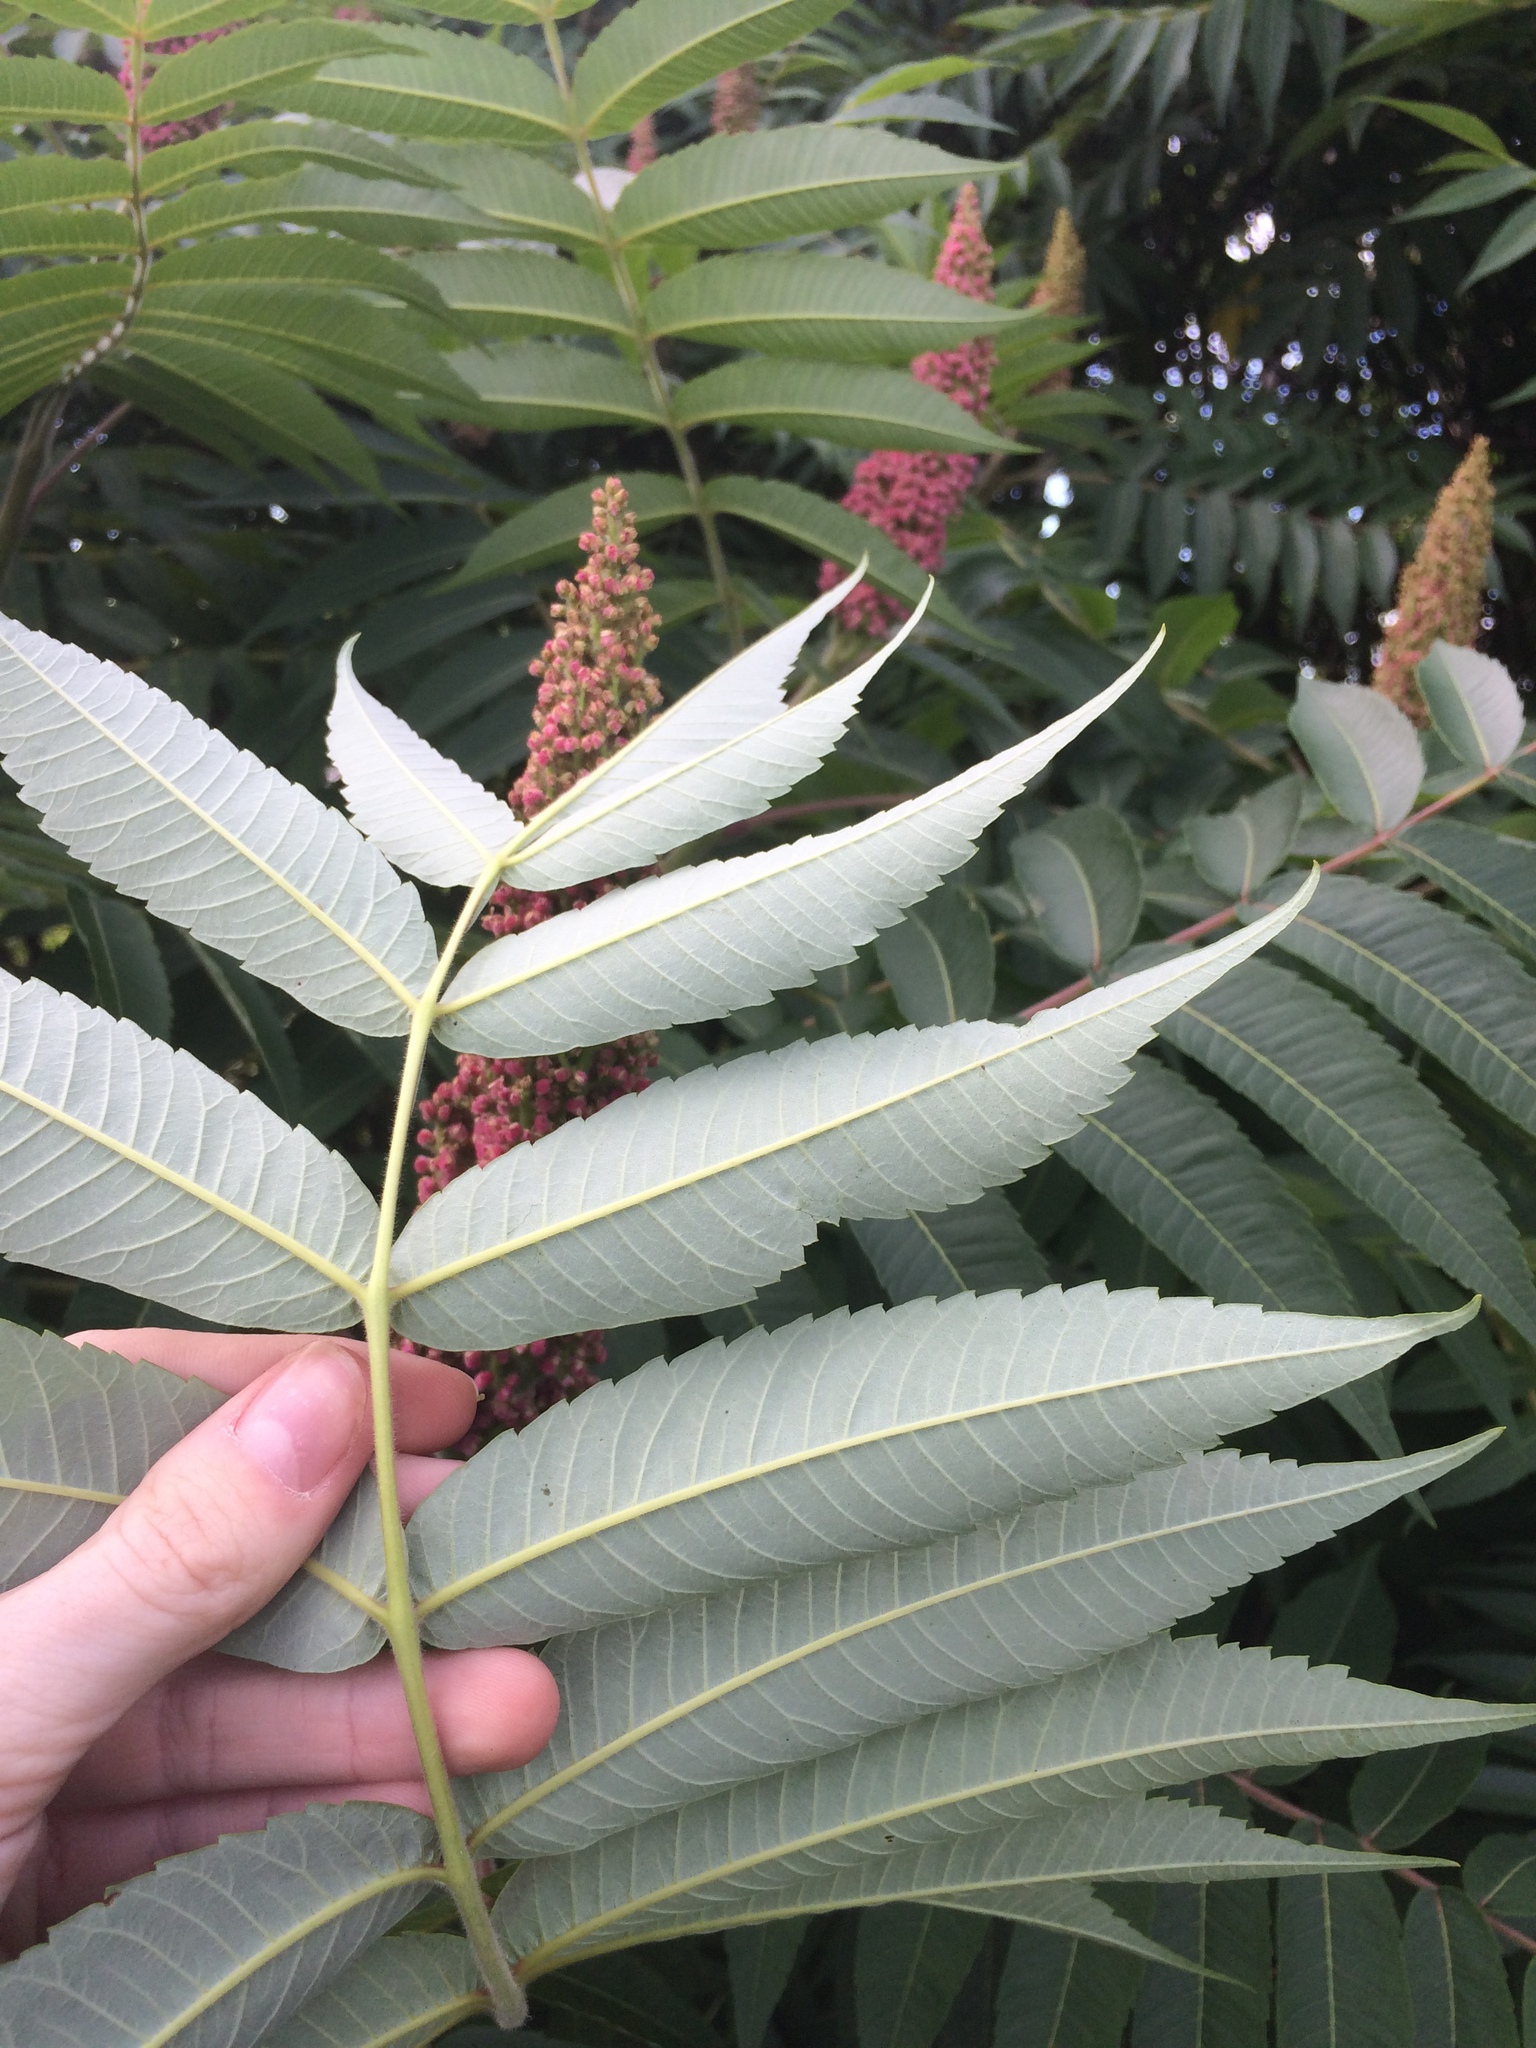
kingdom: Plantae
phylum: Tracheophyta
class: Magnoliopsida
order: Sapindales
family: Anacardiaceae
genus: Rhus
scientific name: Rhus typhina
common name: Staghorn sumac
